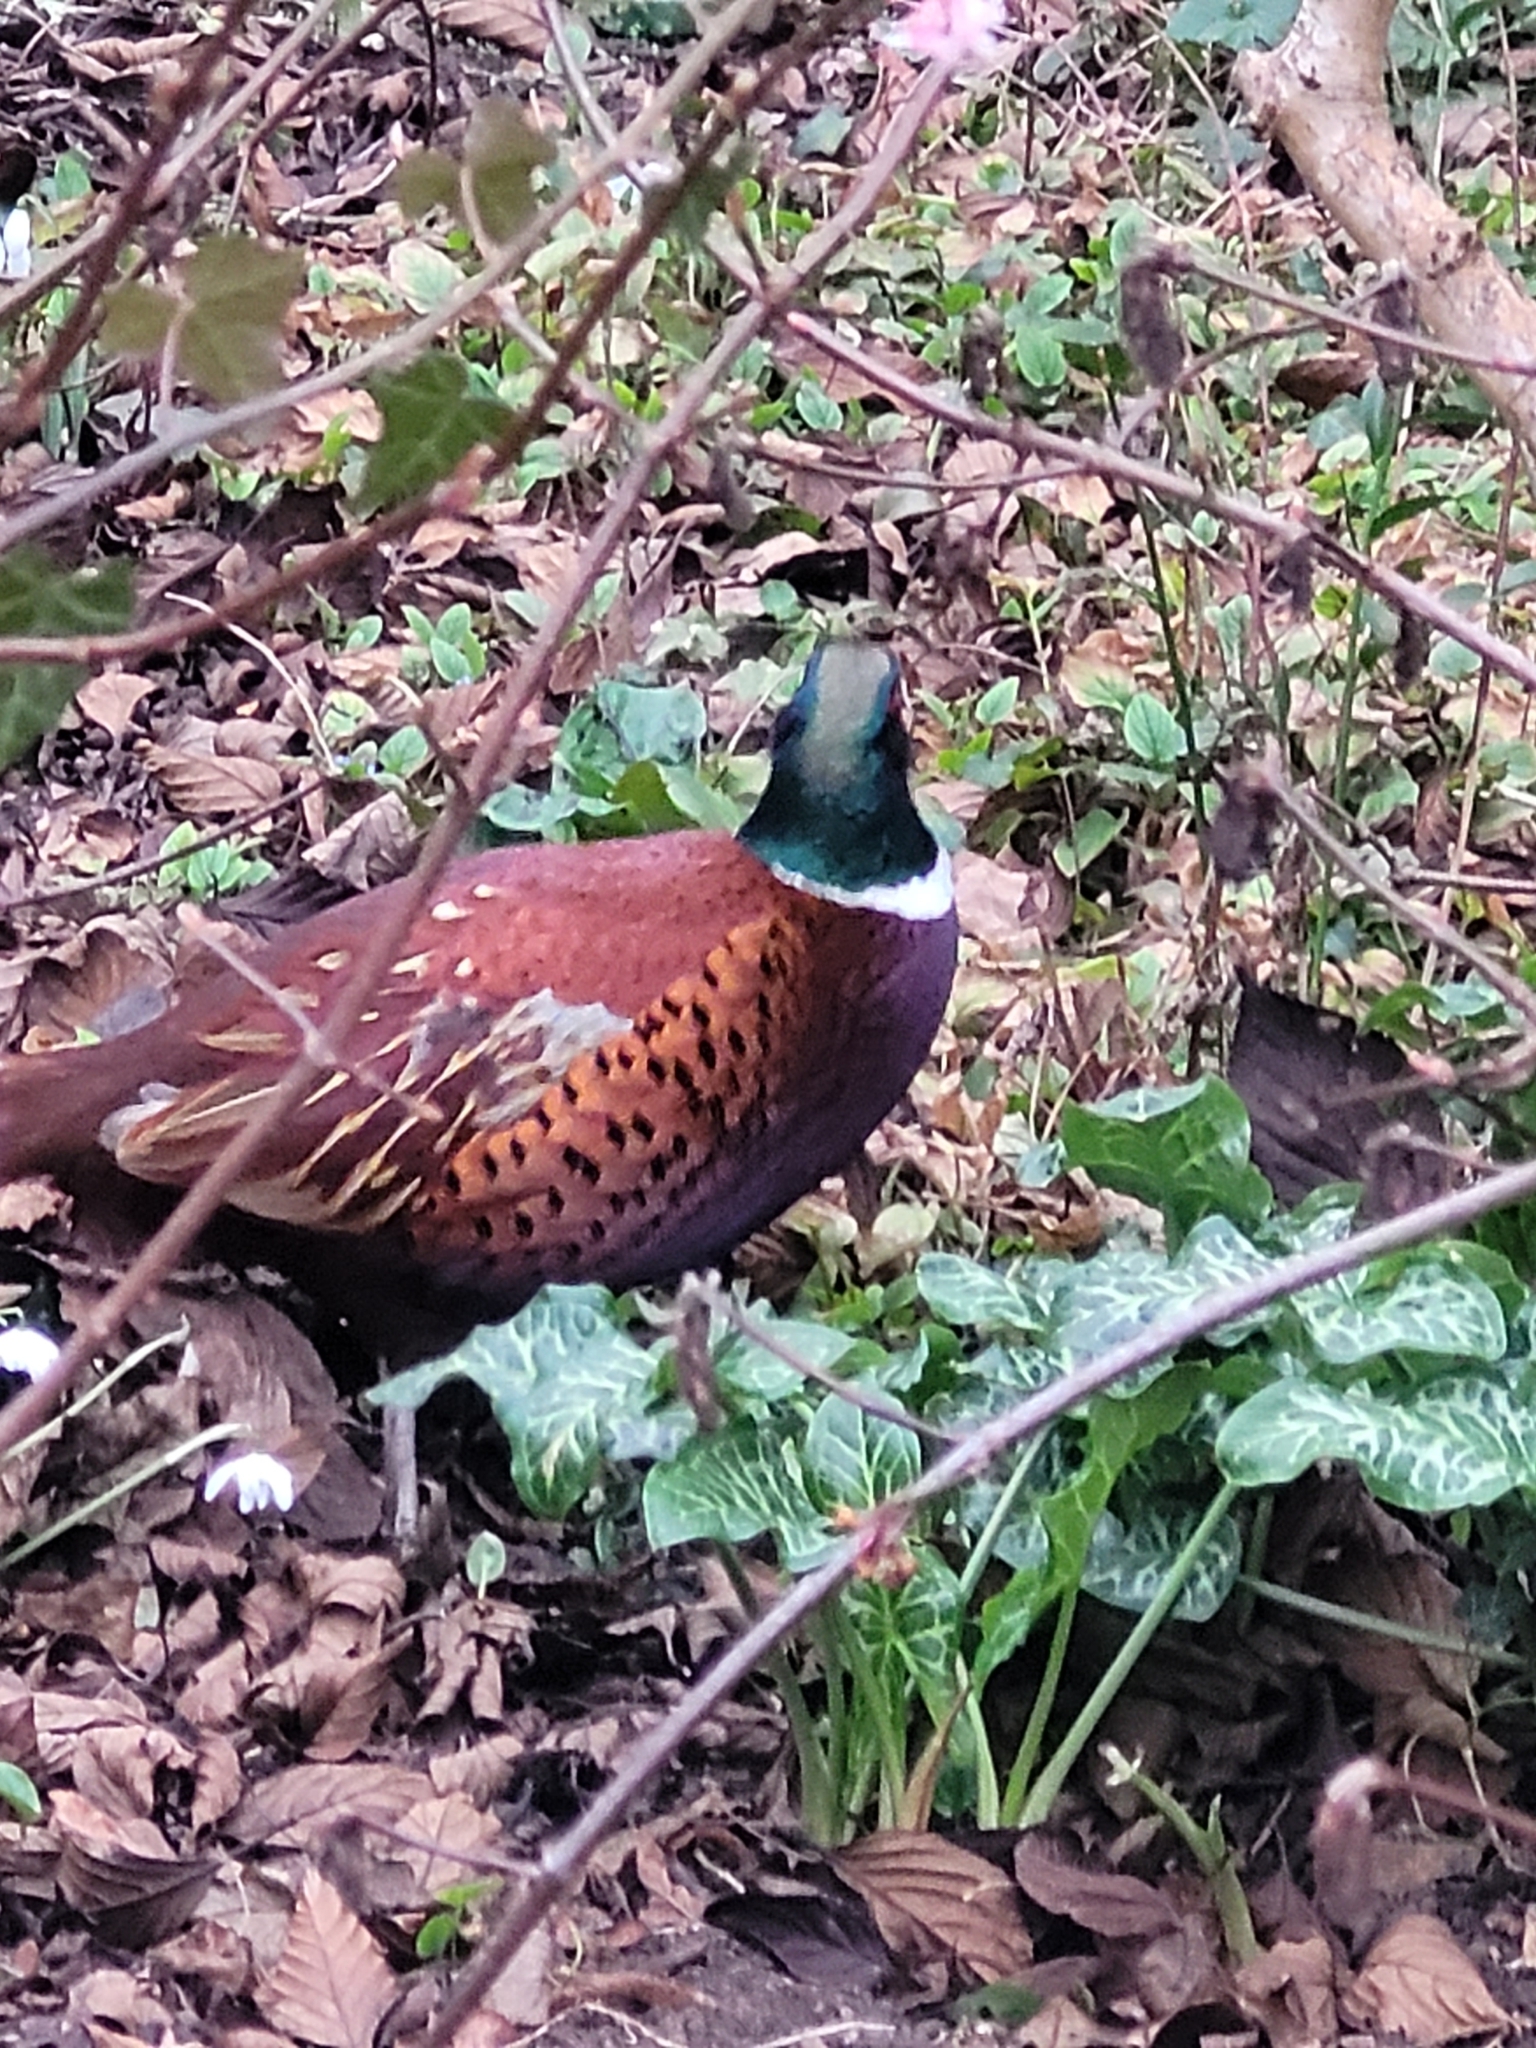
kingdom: Animalia
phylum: Chordata
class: Aves
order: Galliformes
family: Phasianidae
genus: Phasianus
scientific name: Phasianus colchicus
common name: Common pheasant
